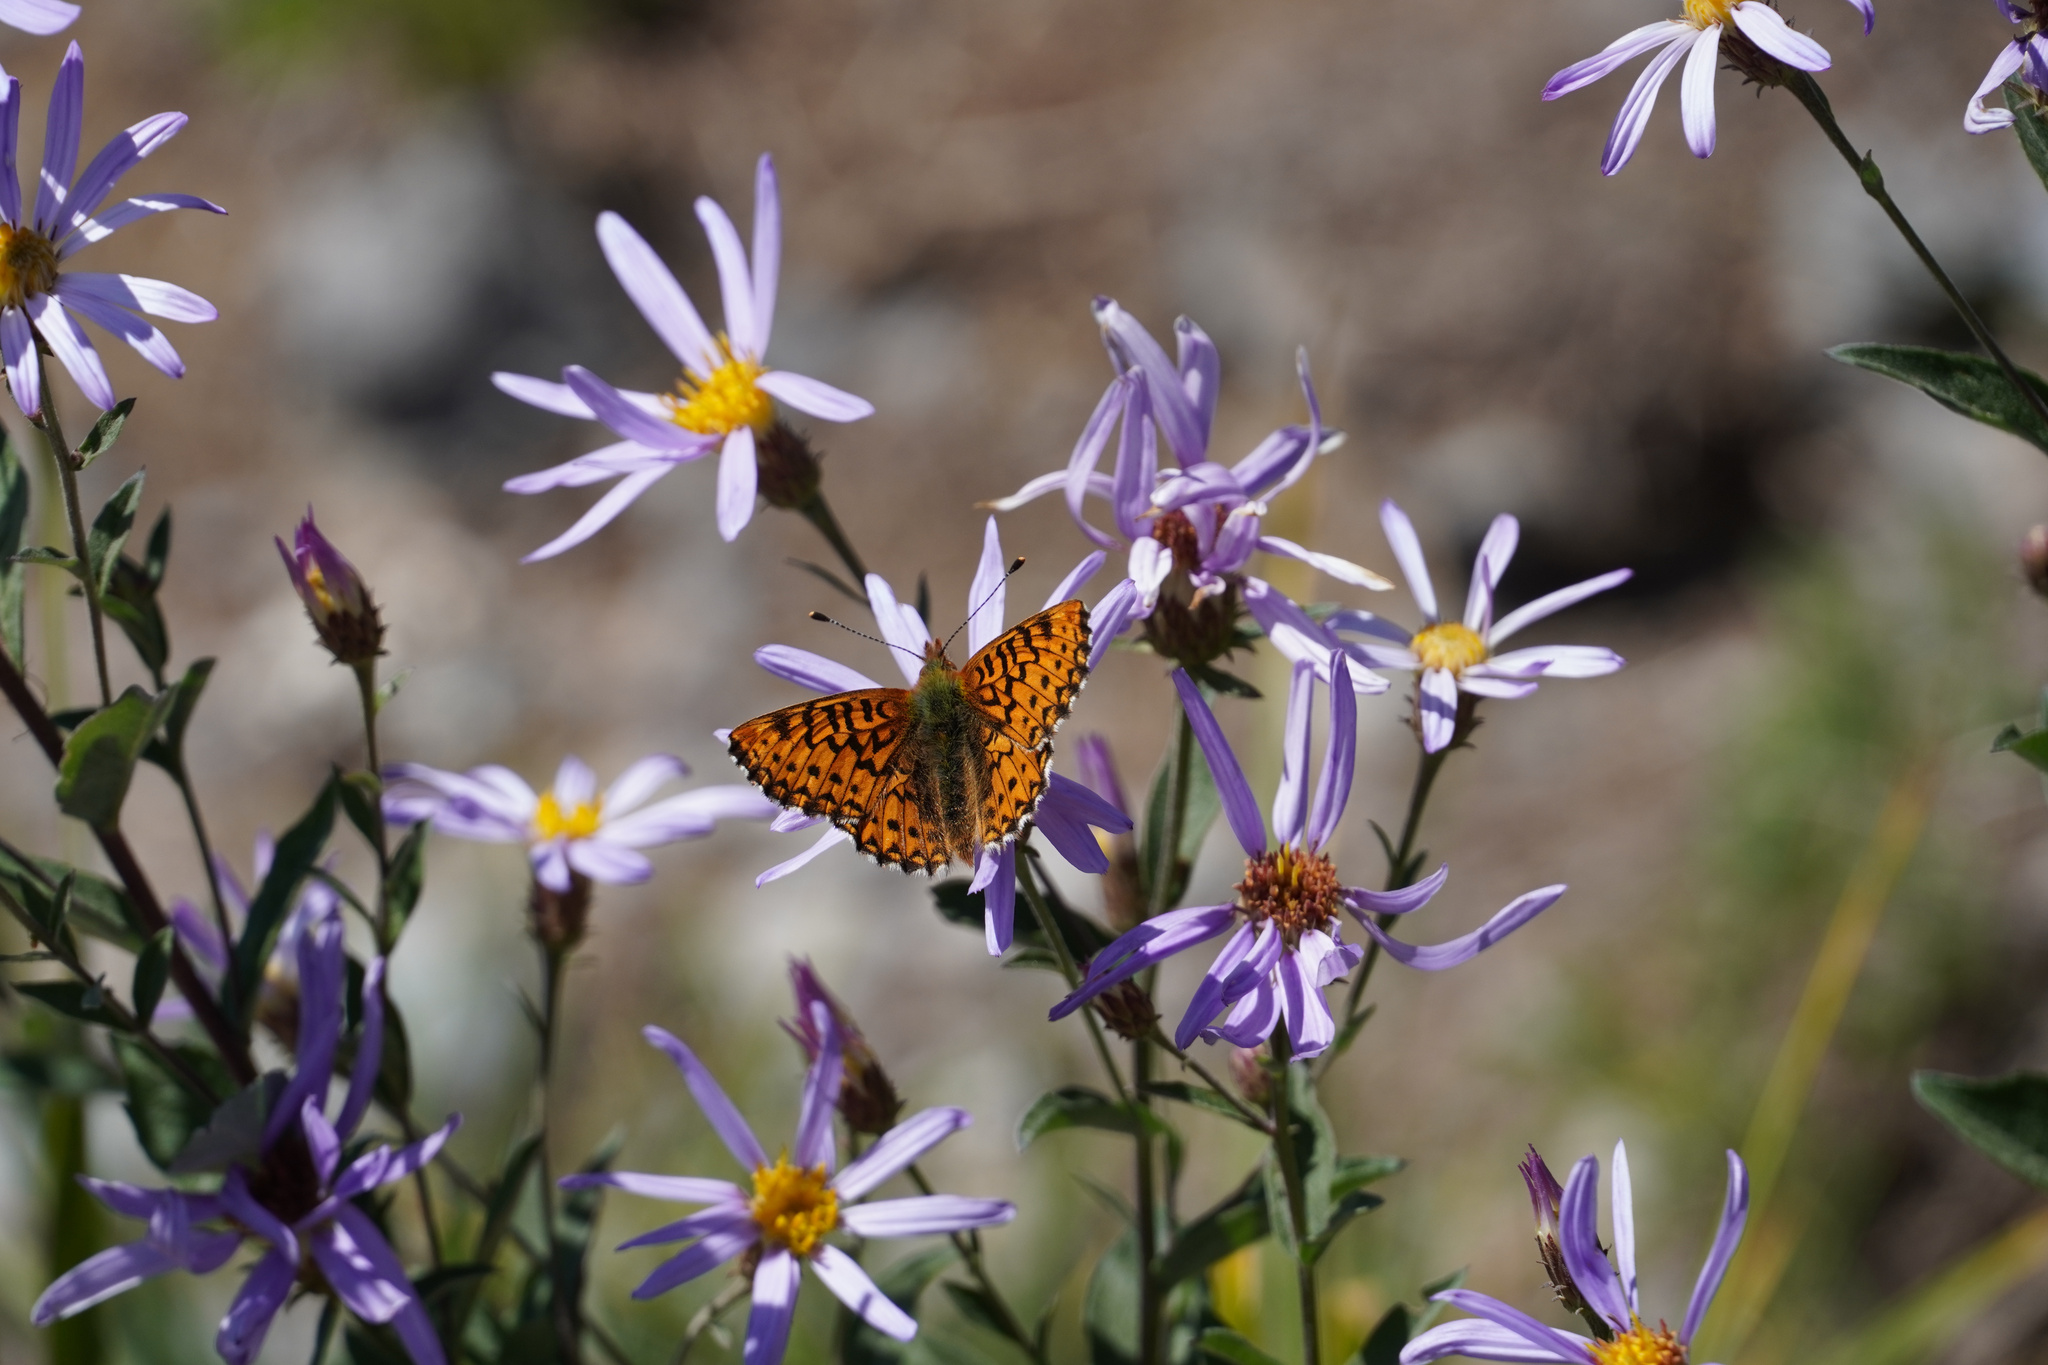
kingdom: Animalia
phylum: Arthropoda
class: Insecta
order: Lepidoptera
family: Nymphalidae
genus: Boloria
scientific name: Boloria chariclea
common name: Arctic fritillary
